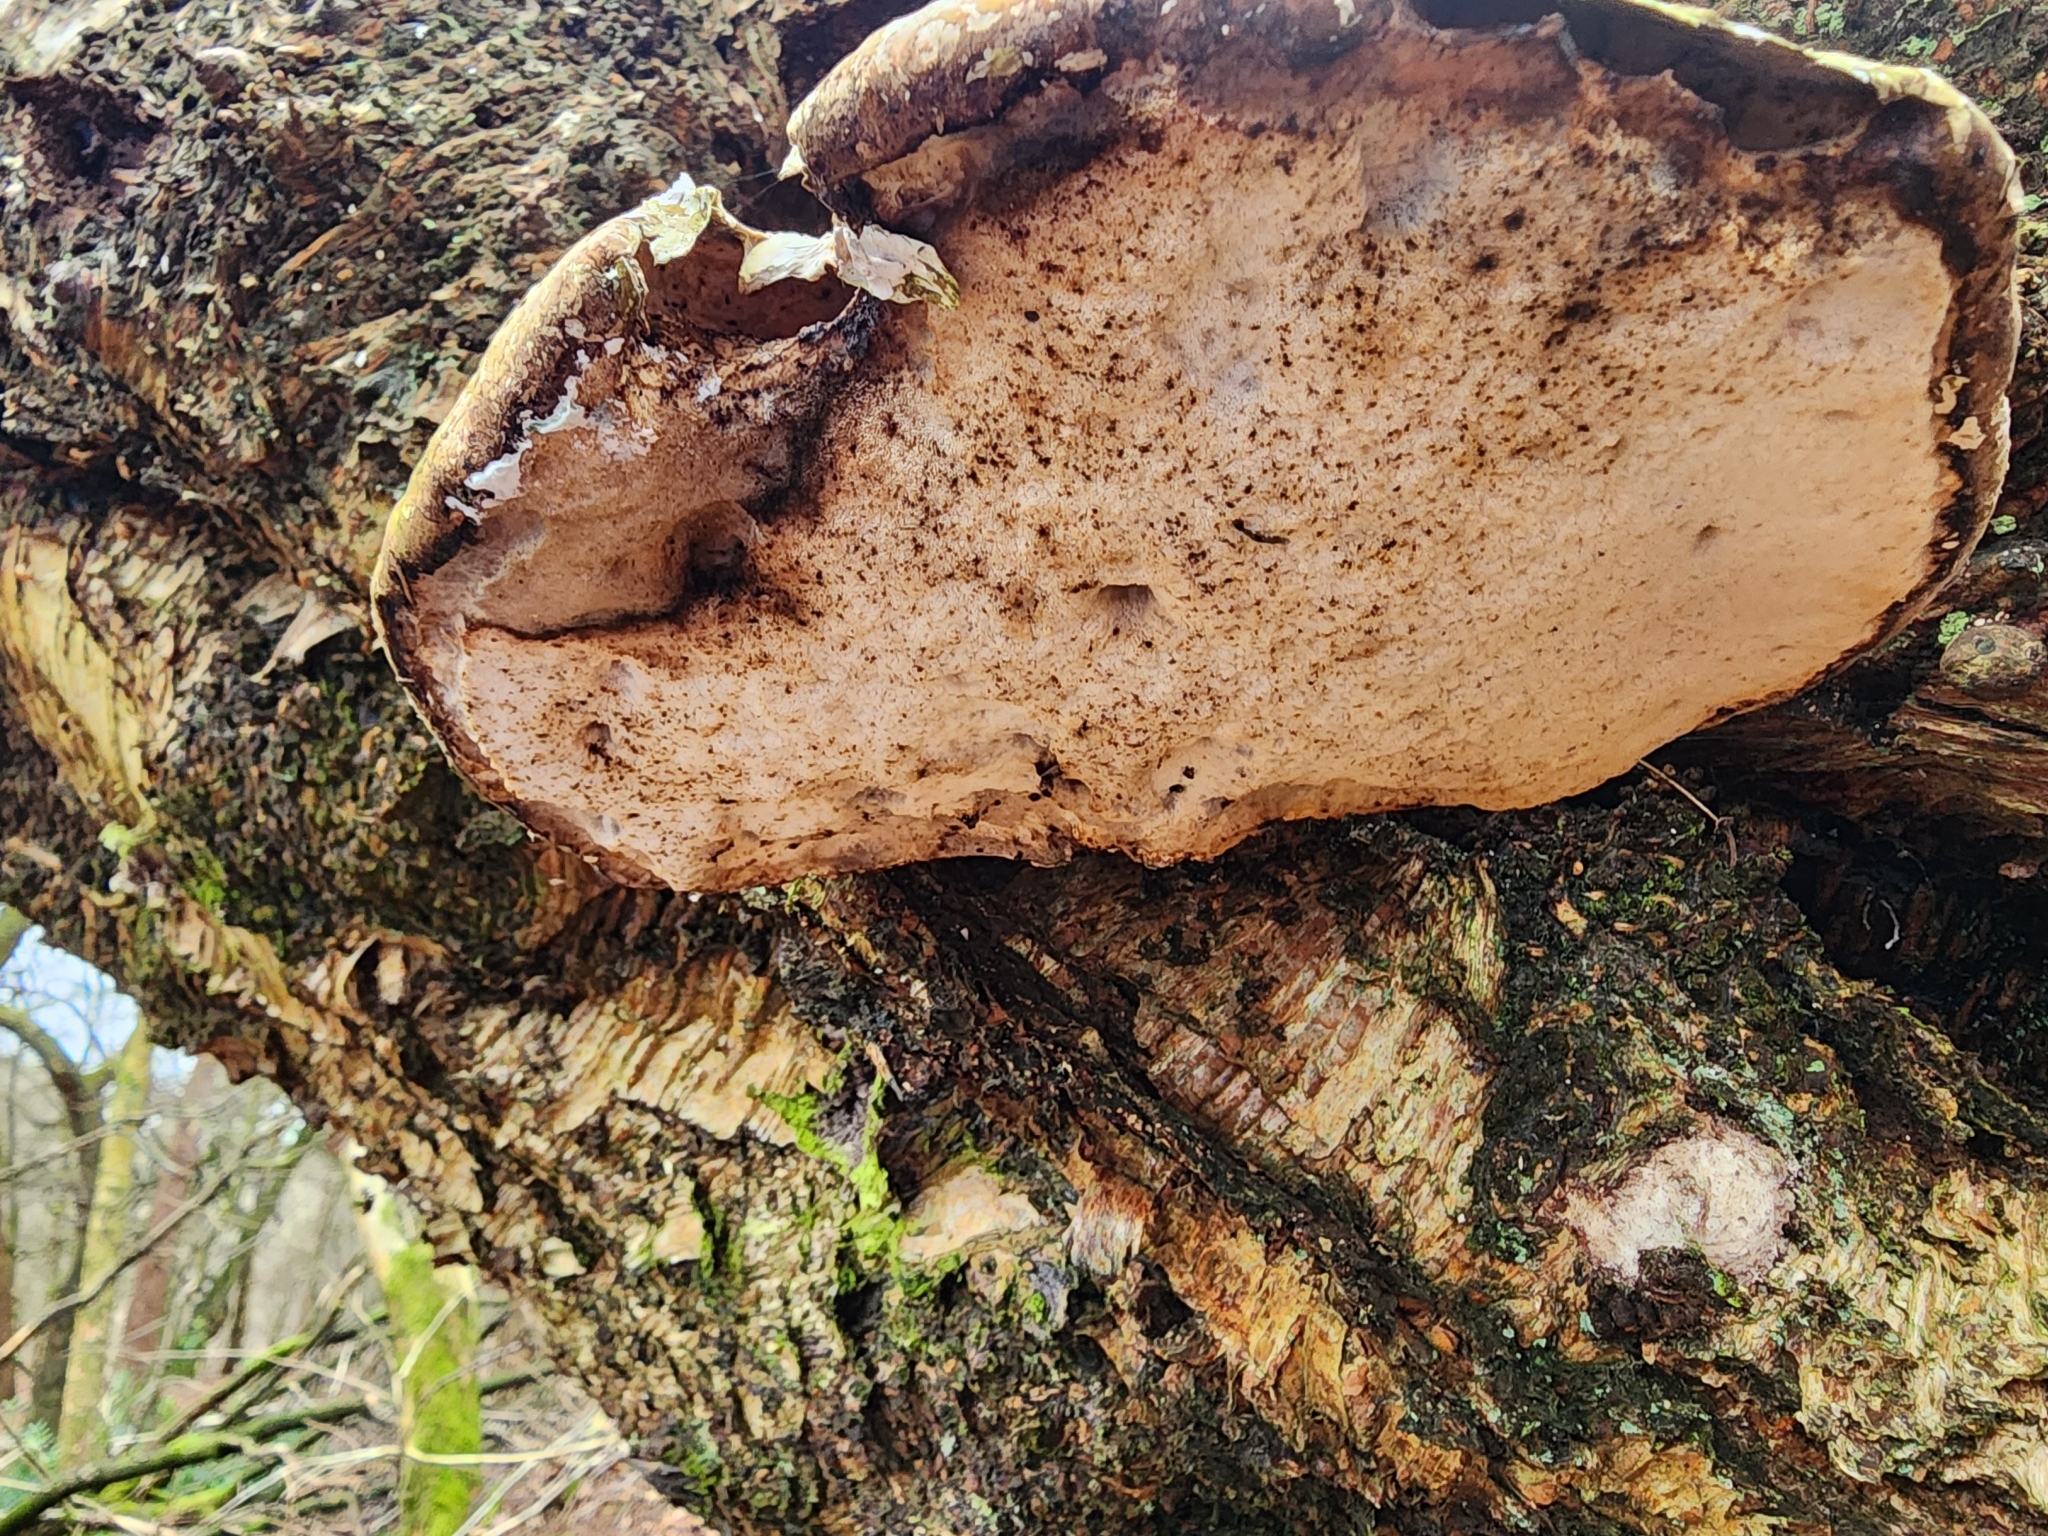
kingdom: Fungi
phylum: Basidiomycota
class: Agaricomycetes
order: Polyporales
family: Fomitopsidaceae
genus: Fomitopsis
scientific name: Fomitopsis betulina
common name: Birch polypore
